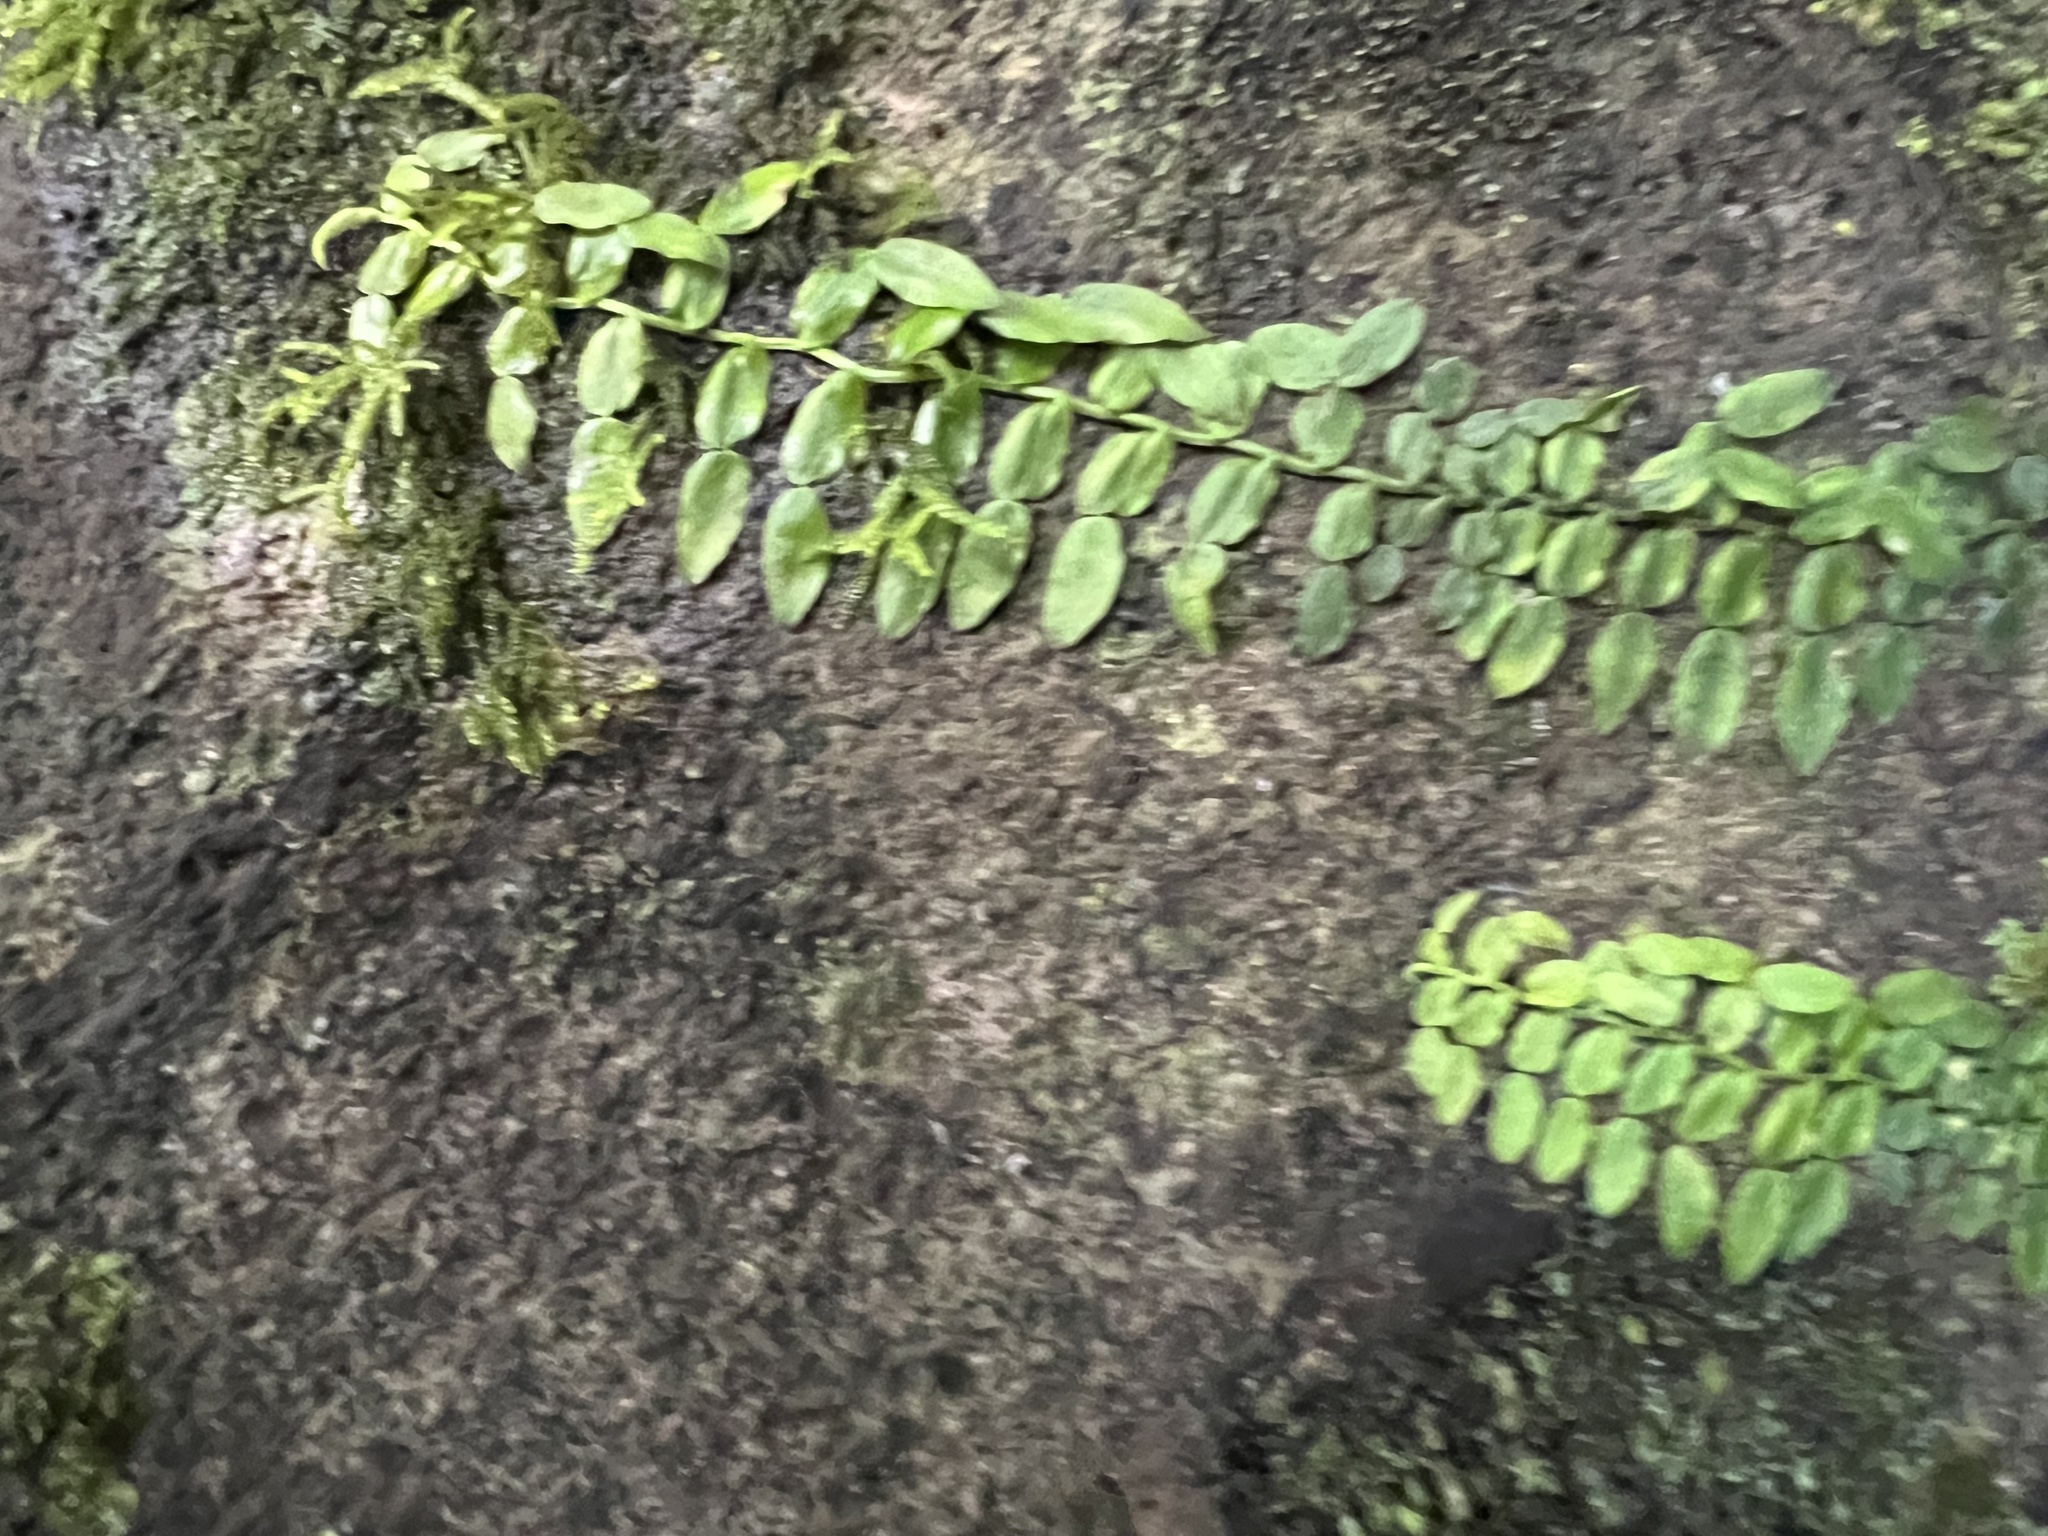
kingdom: Plantae
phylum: Tracheophyta
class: Liliopsida
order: Alismatales
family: Araceae
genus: Pothos
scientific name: Pothos longipes
